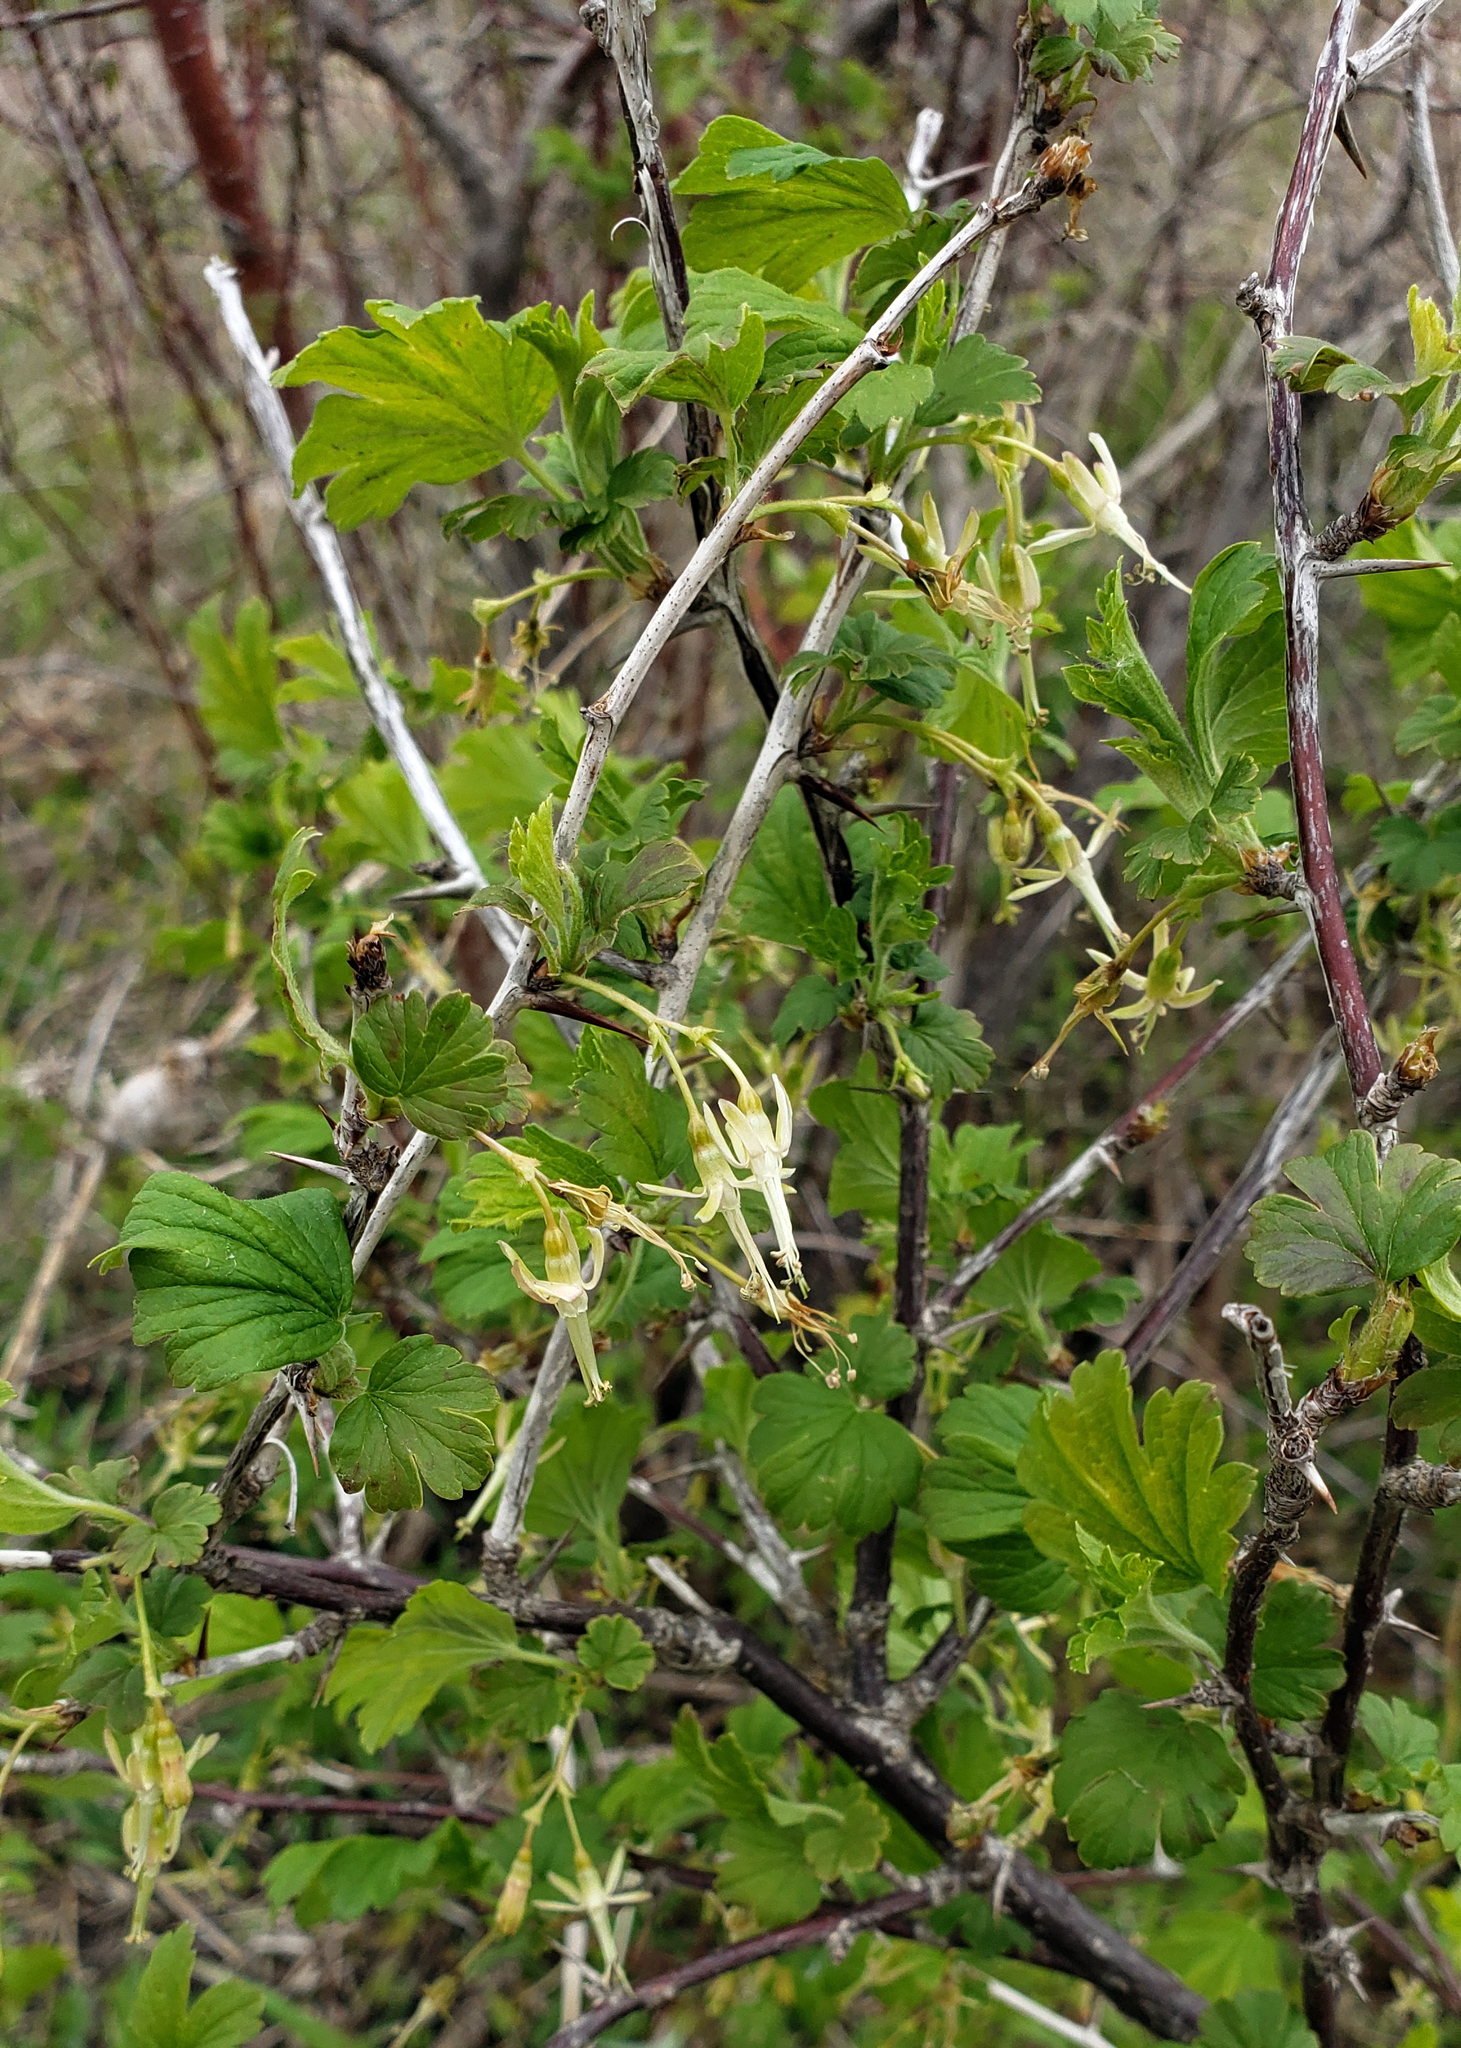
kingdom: Plantae
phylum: Tracheophyta
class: Magnoliopsida
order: Saxifragales
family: Grossulariaceae
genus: Ribes
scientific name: Ribes missouriense
